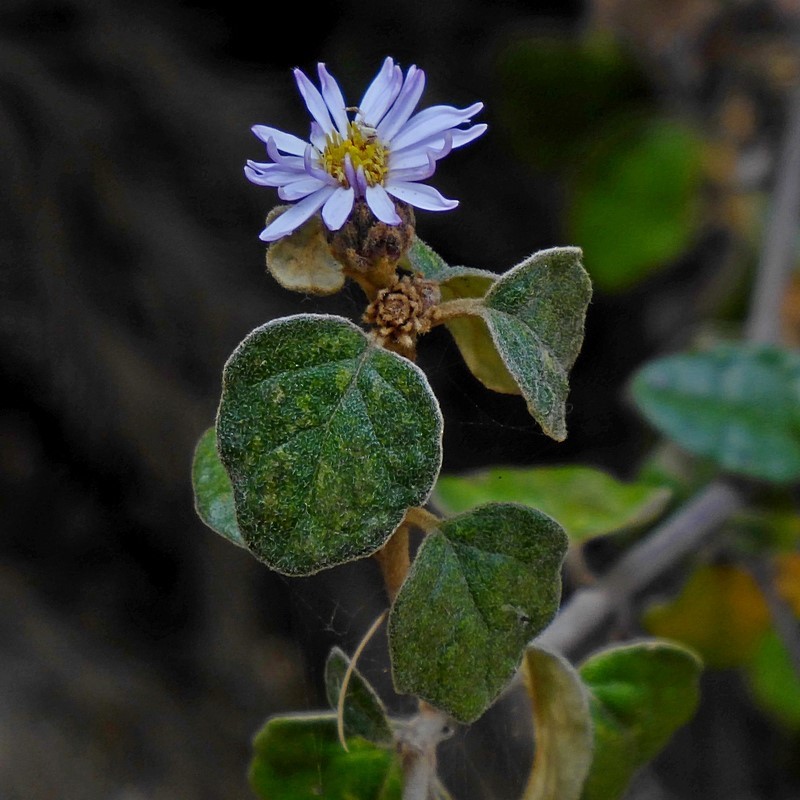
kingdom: Plantae
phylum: Tracheophyta
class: Magnoliopsida
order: Asterales
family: Asteraceae
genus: Olearia
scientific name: Olearia tomentosa
